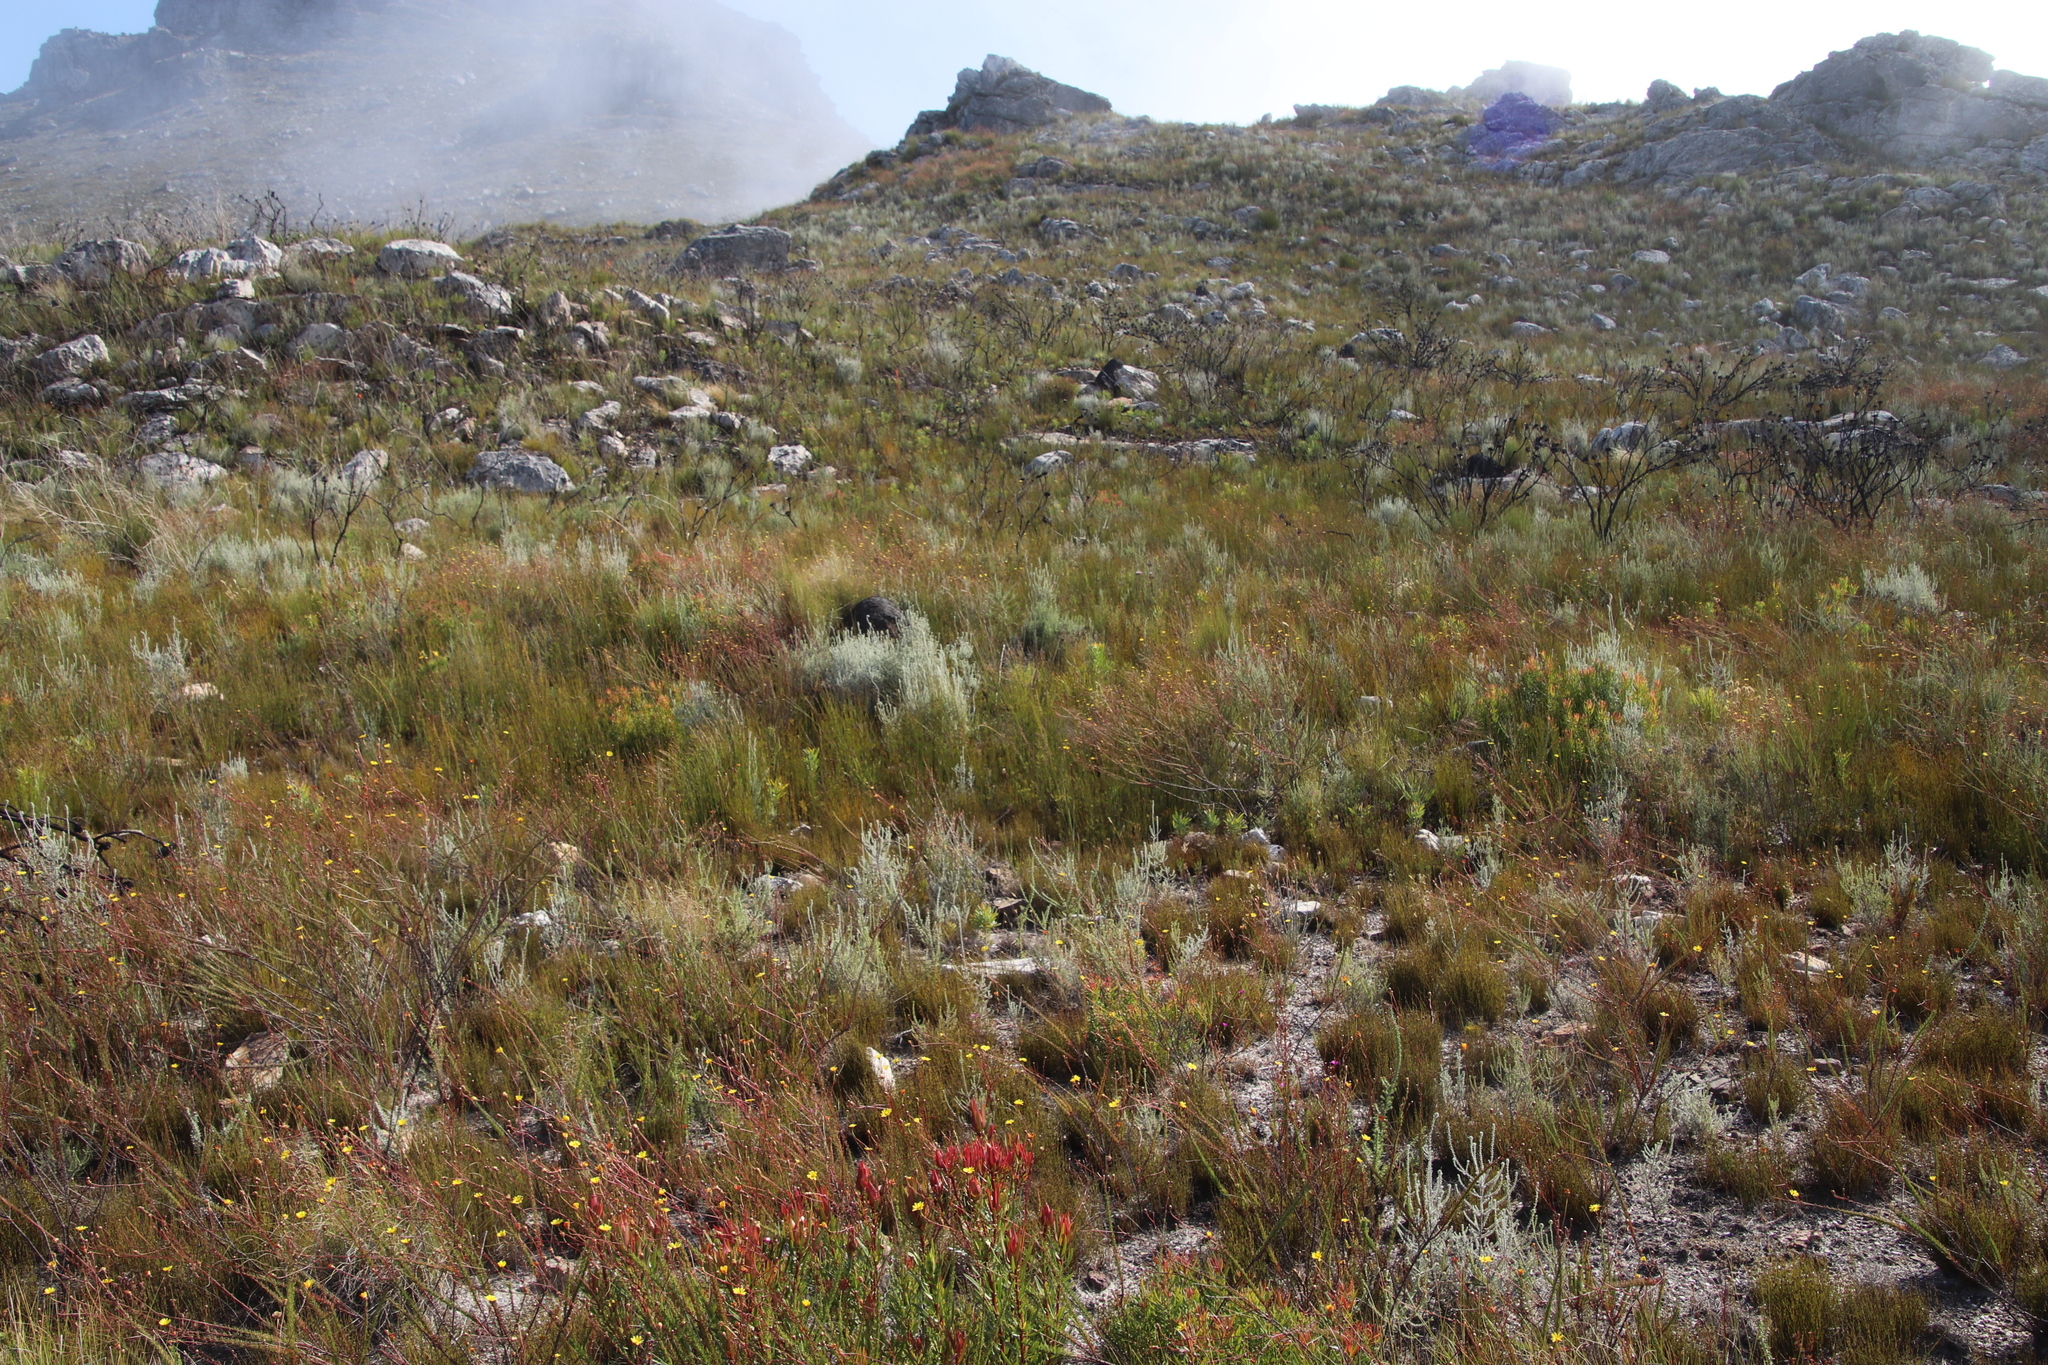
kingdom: Plantae
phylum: Tracheophyta
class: Magnoliopsida
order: Proteales
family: Proteaceae
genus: Protea
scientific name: Protea repens
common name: Sugarbush
